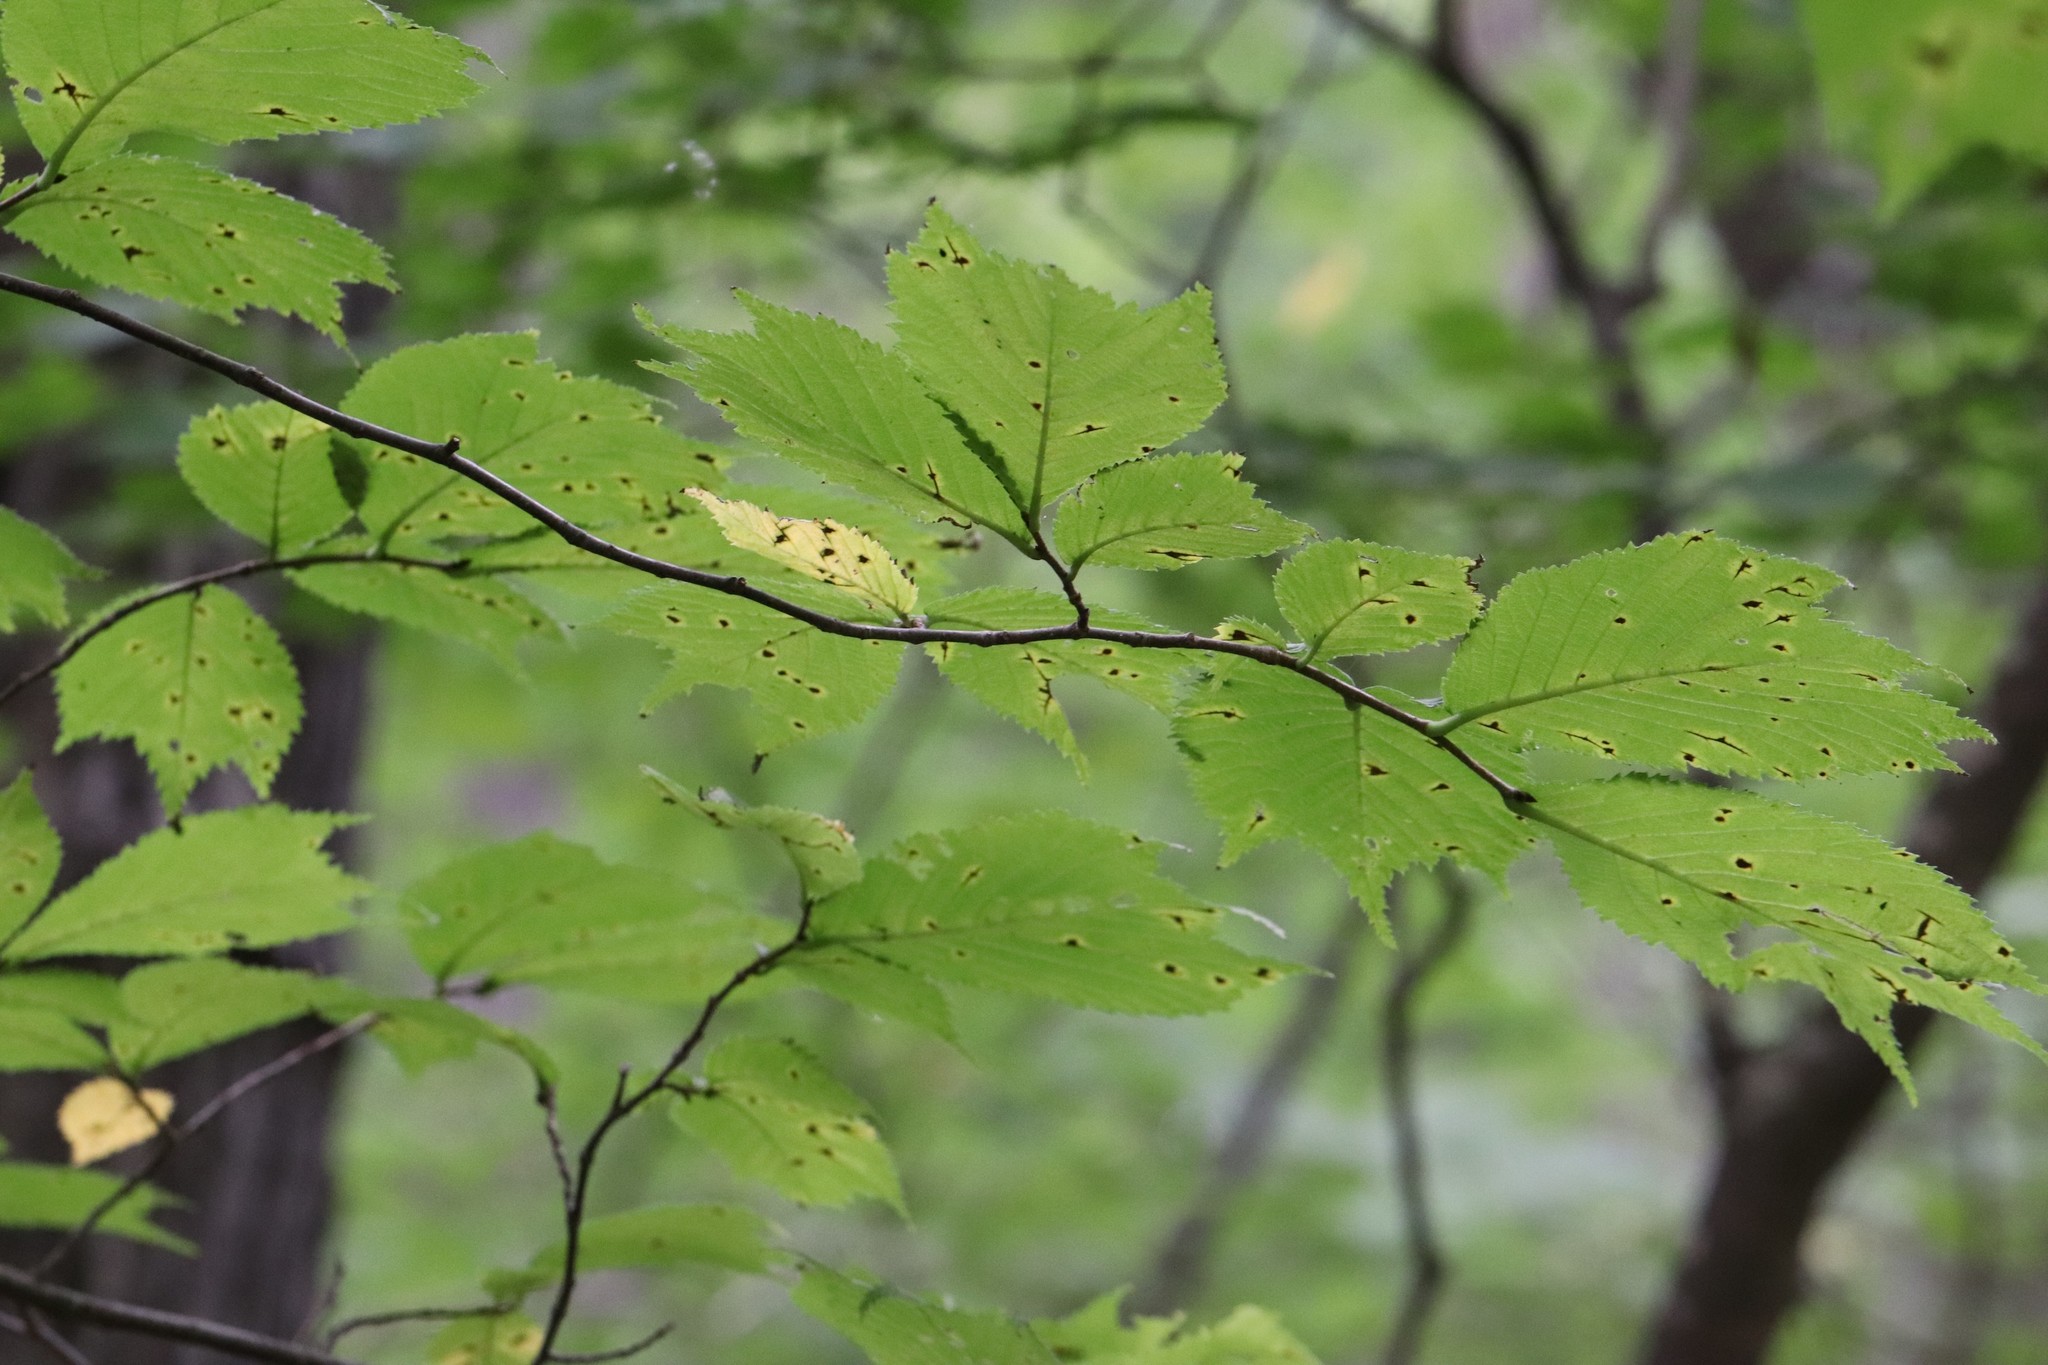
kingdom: Plantae
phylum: Tracheophyta
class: Magnoliopsida
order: Rosales
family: Ulmaceae
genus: Ulmus
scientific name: Ulmus laciniata
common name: Japanese elm
